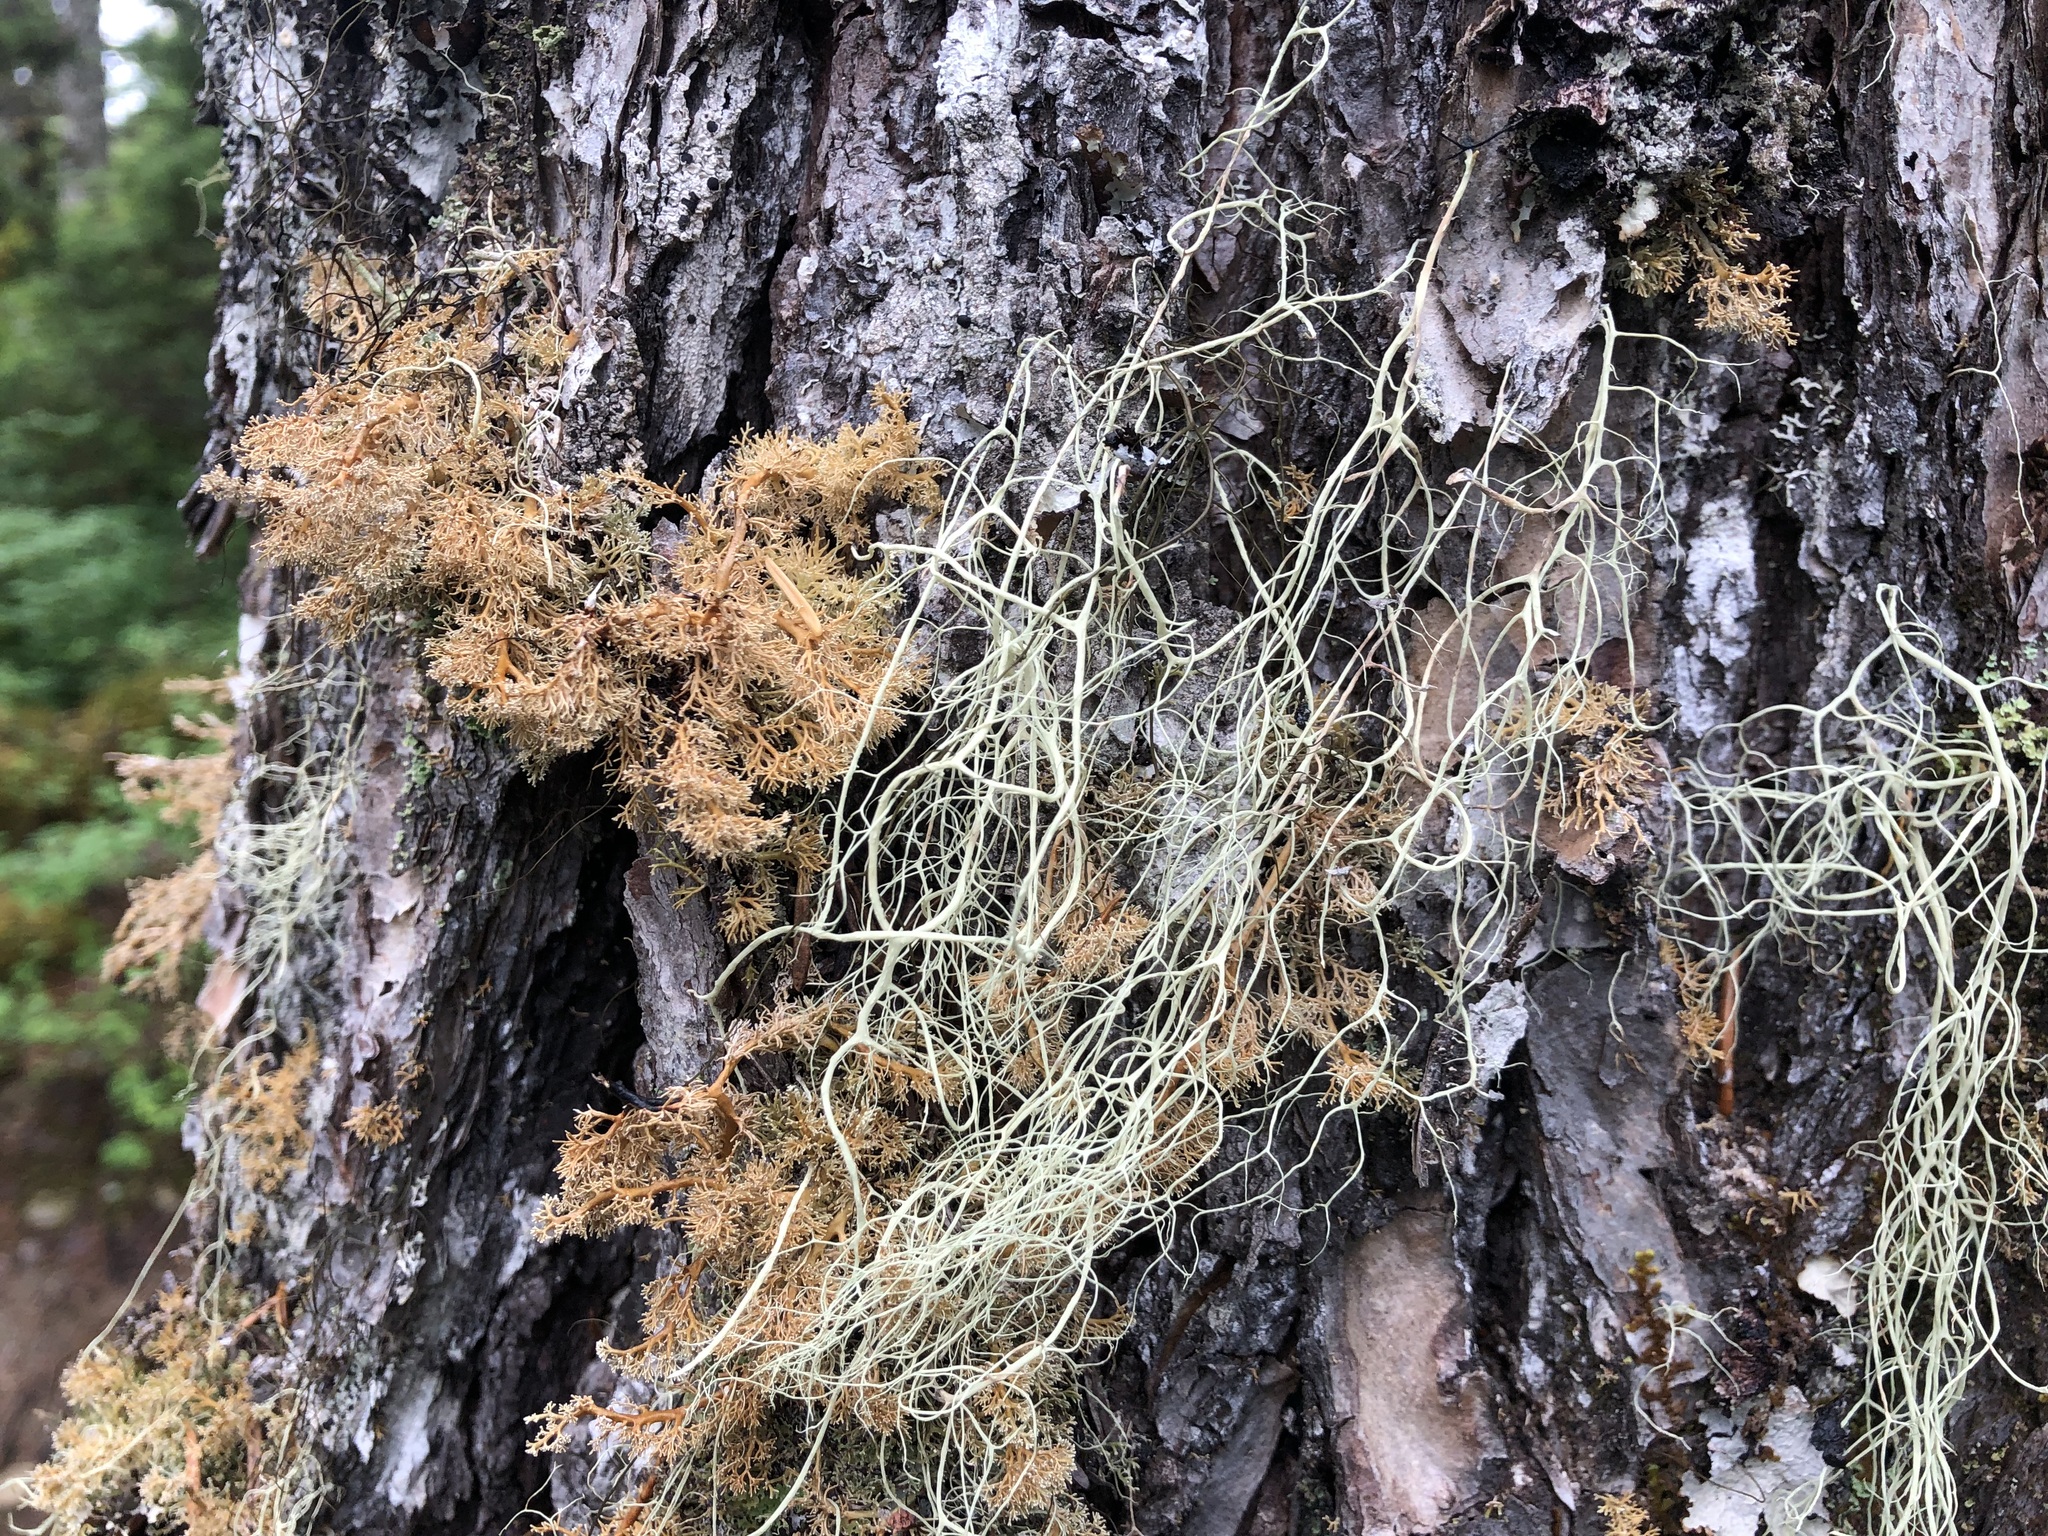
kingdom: Fungi
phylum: Ascomycota
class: Lecanoromycetes
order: Lecanorales
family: Parmeliaceae
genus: Alectoria
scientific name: Alectoria sarmentosa
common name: Witch's hair
